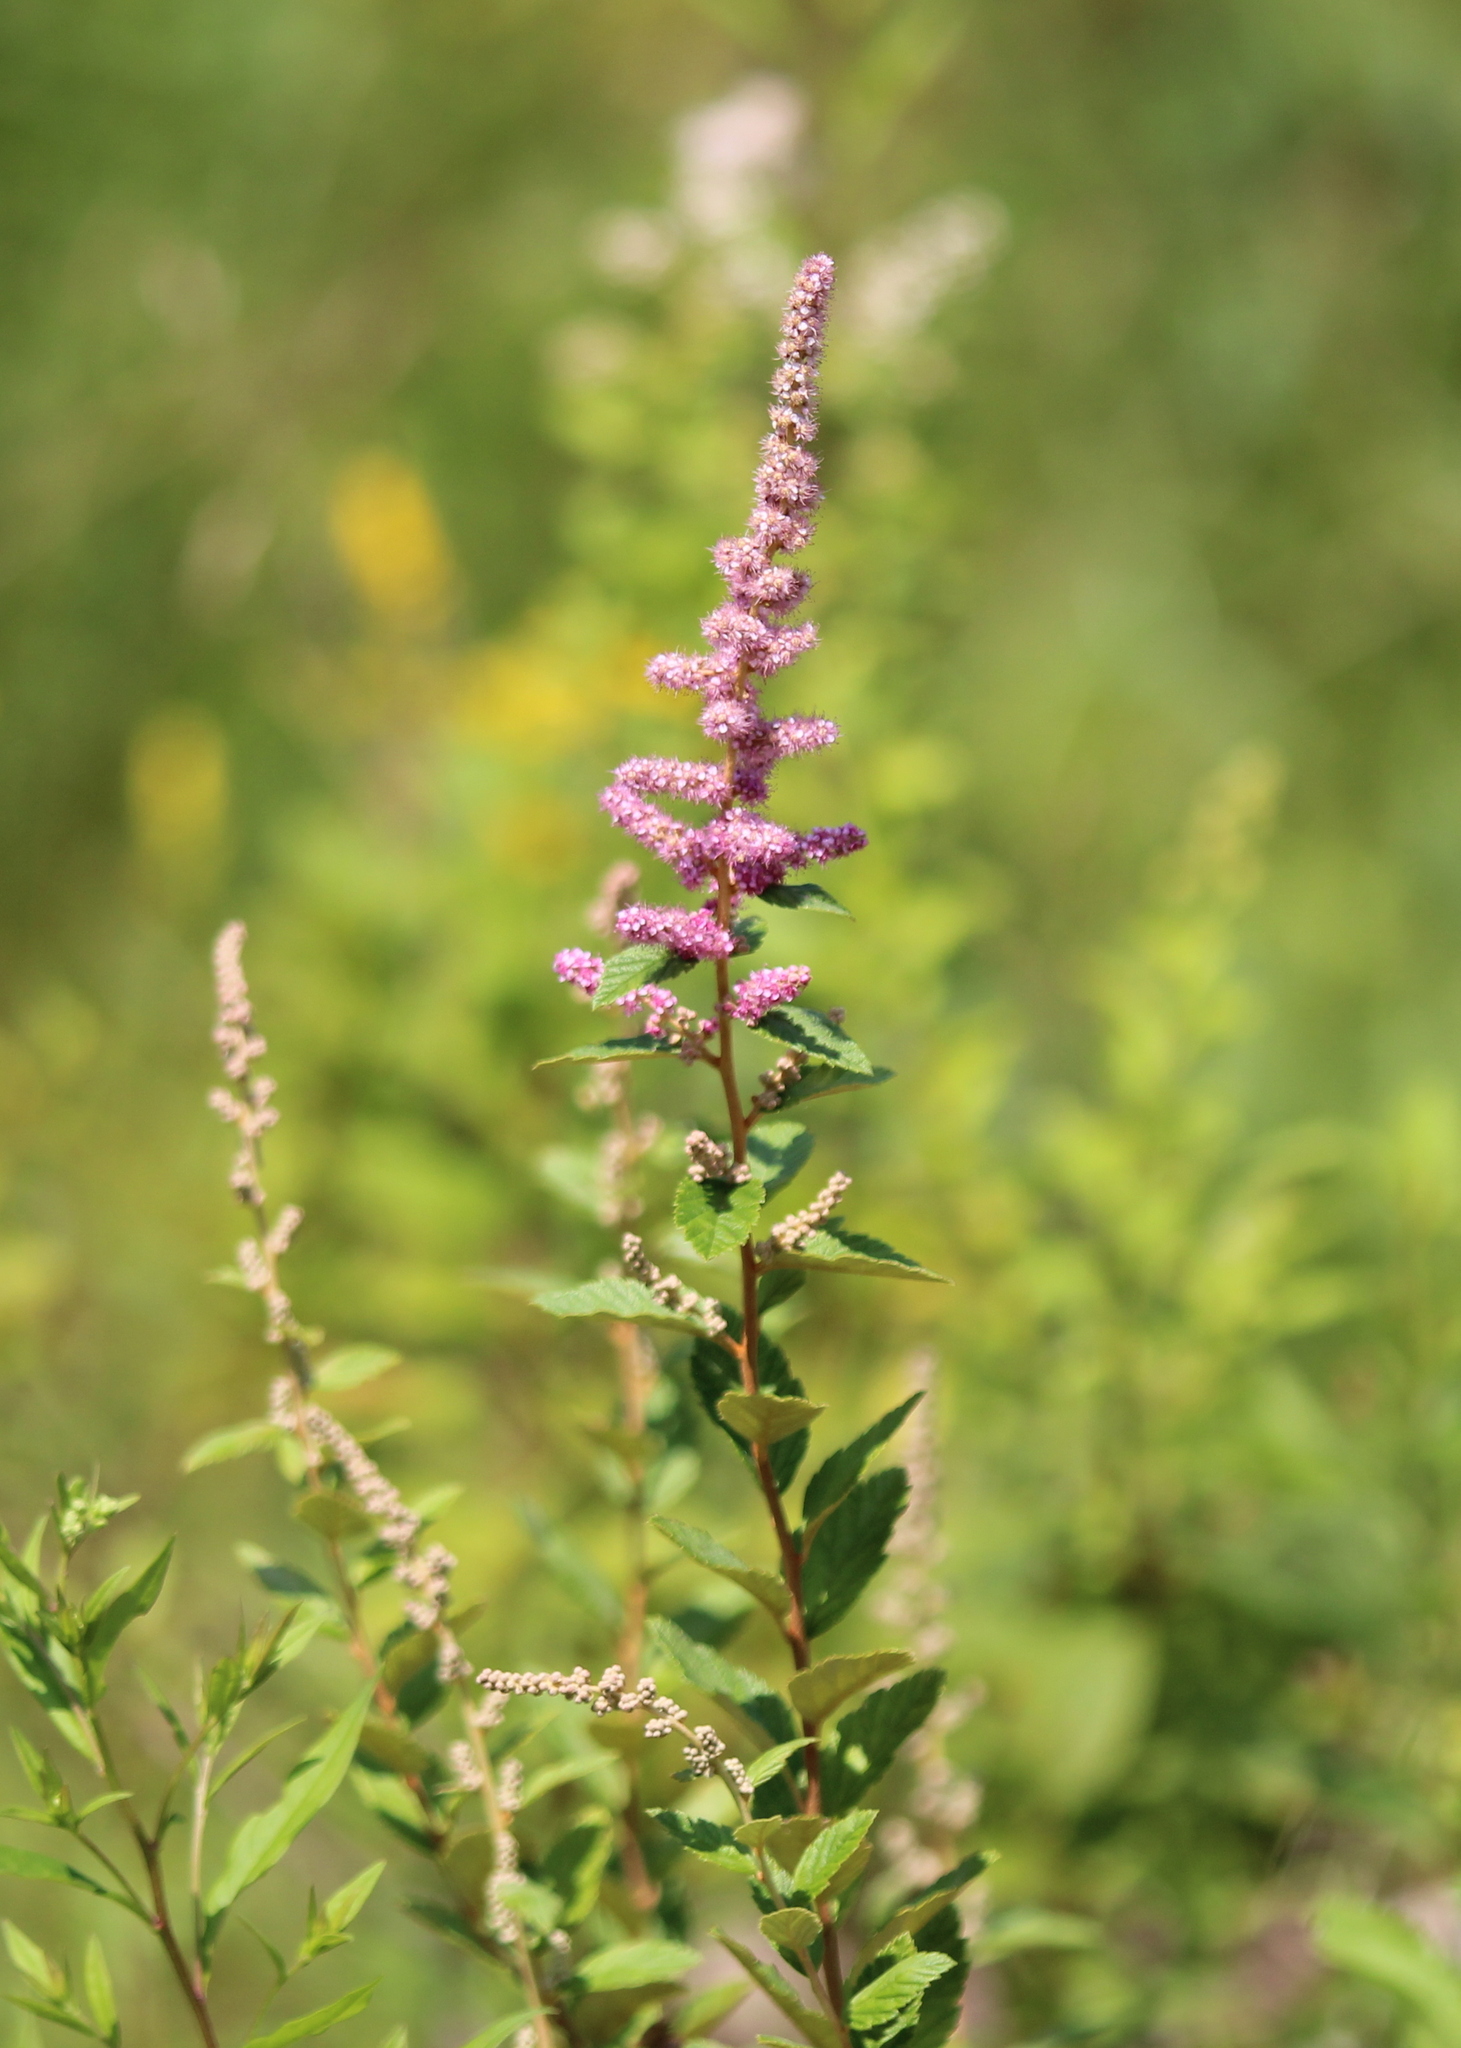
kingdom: Plantae
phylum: Tracheophyta
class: Magnoliopsida
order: Rosales
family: Rosaceae
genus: Spiraea
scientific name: Spiraea tomentosa
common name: Hardhack
